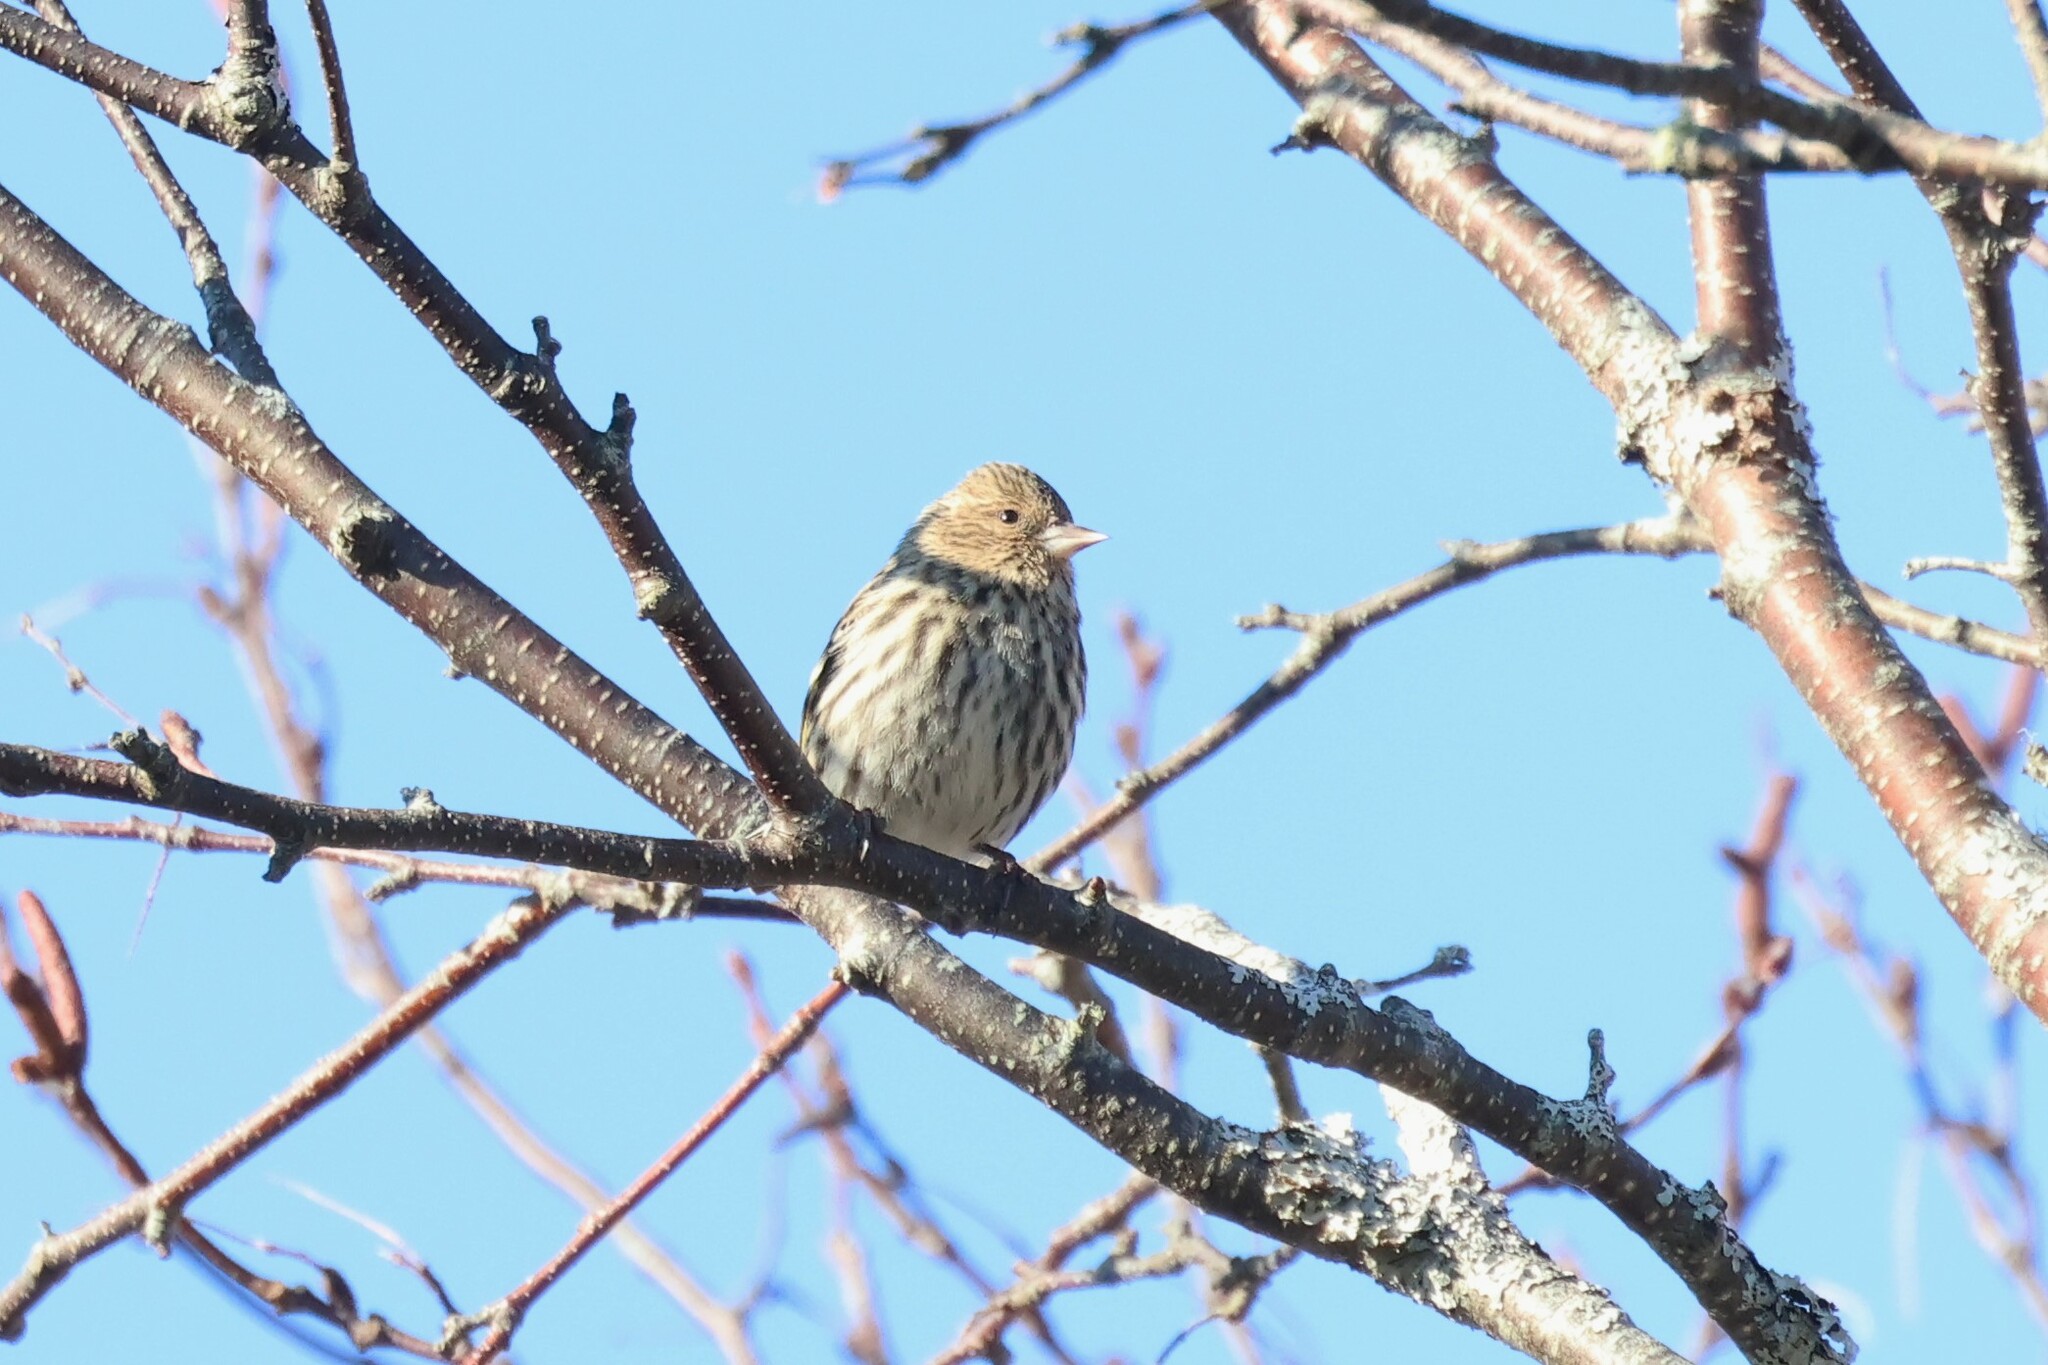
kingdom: Animalia
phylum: Chordata
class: Aves
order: Passeriformes
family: Fringillidae
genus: Spinus
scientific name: Spinus pinus
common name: Pine siskin
